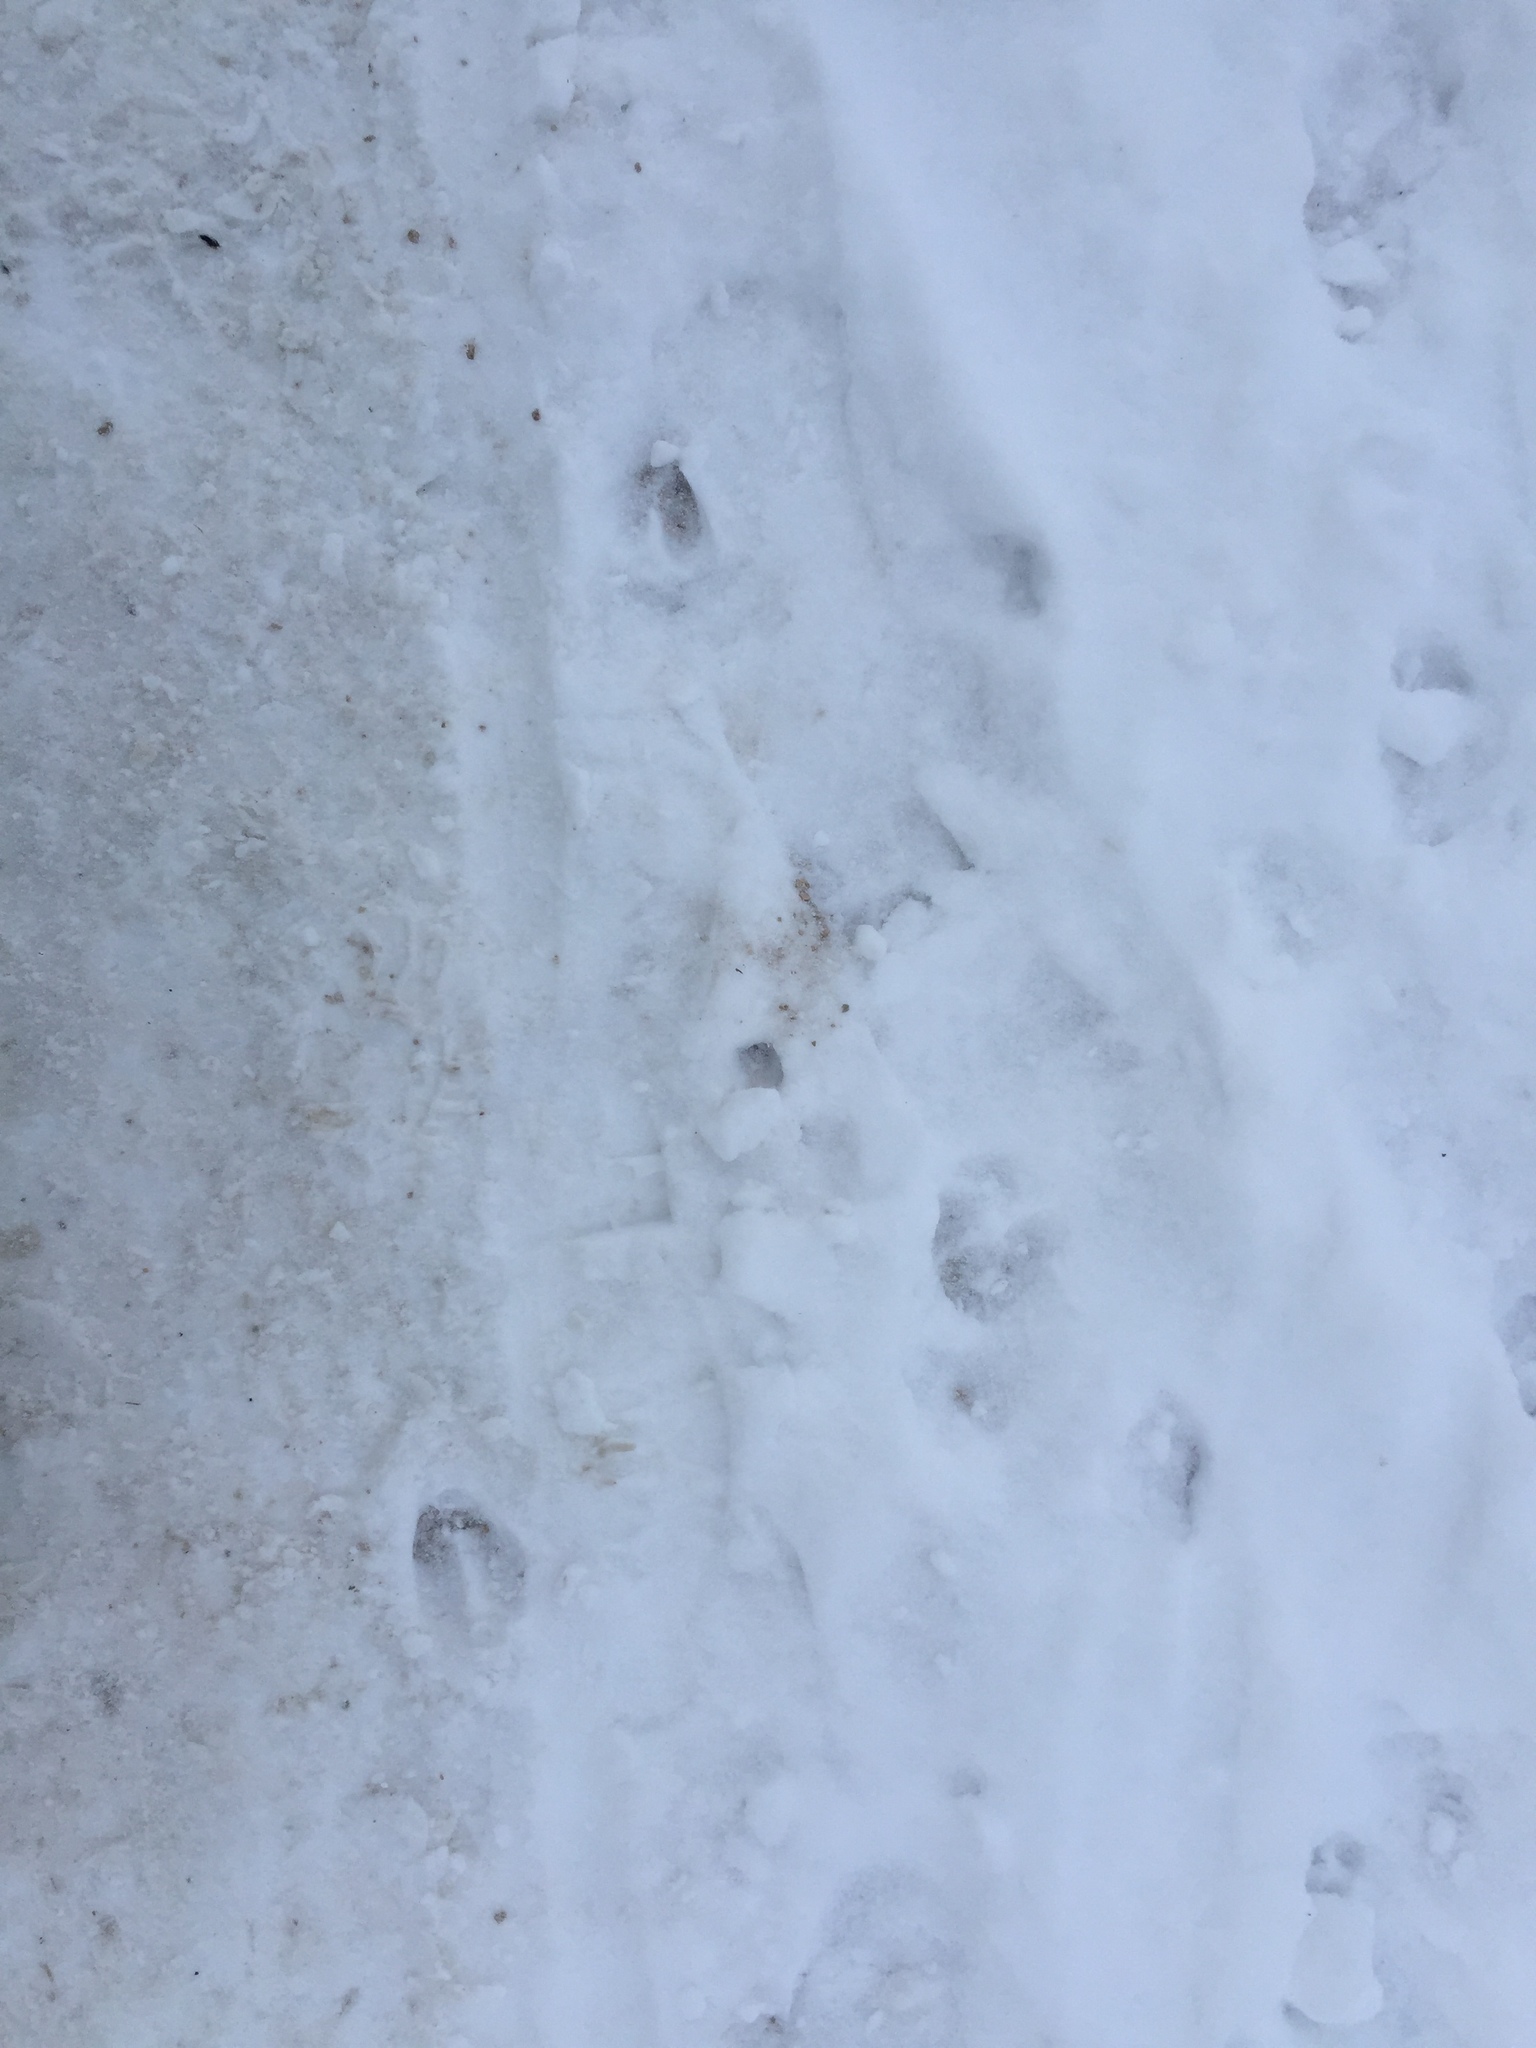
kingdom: Animalia
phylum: Chordata
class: Mammalia
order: Artiodactyla
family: Cervidae
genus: Odocoileus
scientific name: Odocoileus virginianus
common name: White-tailed deer
